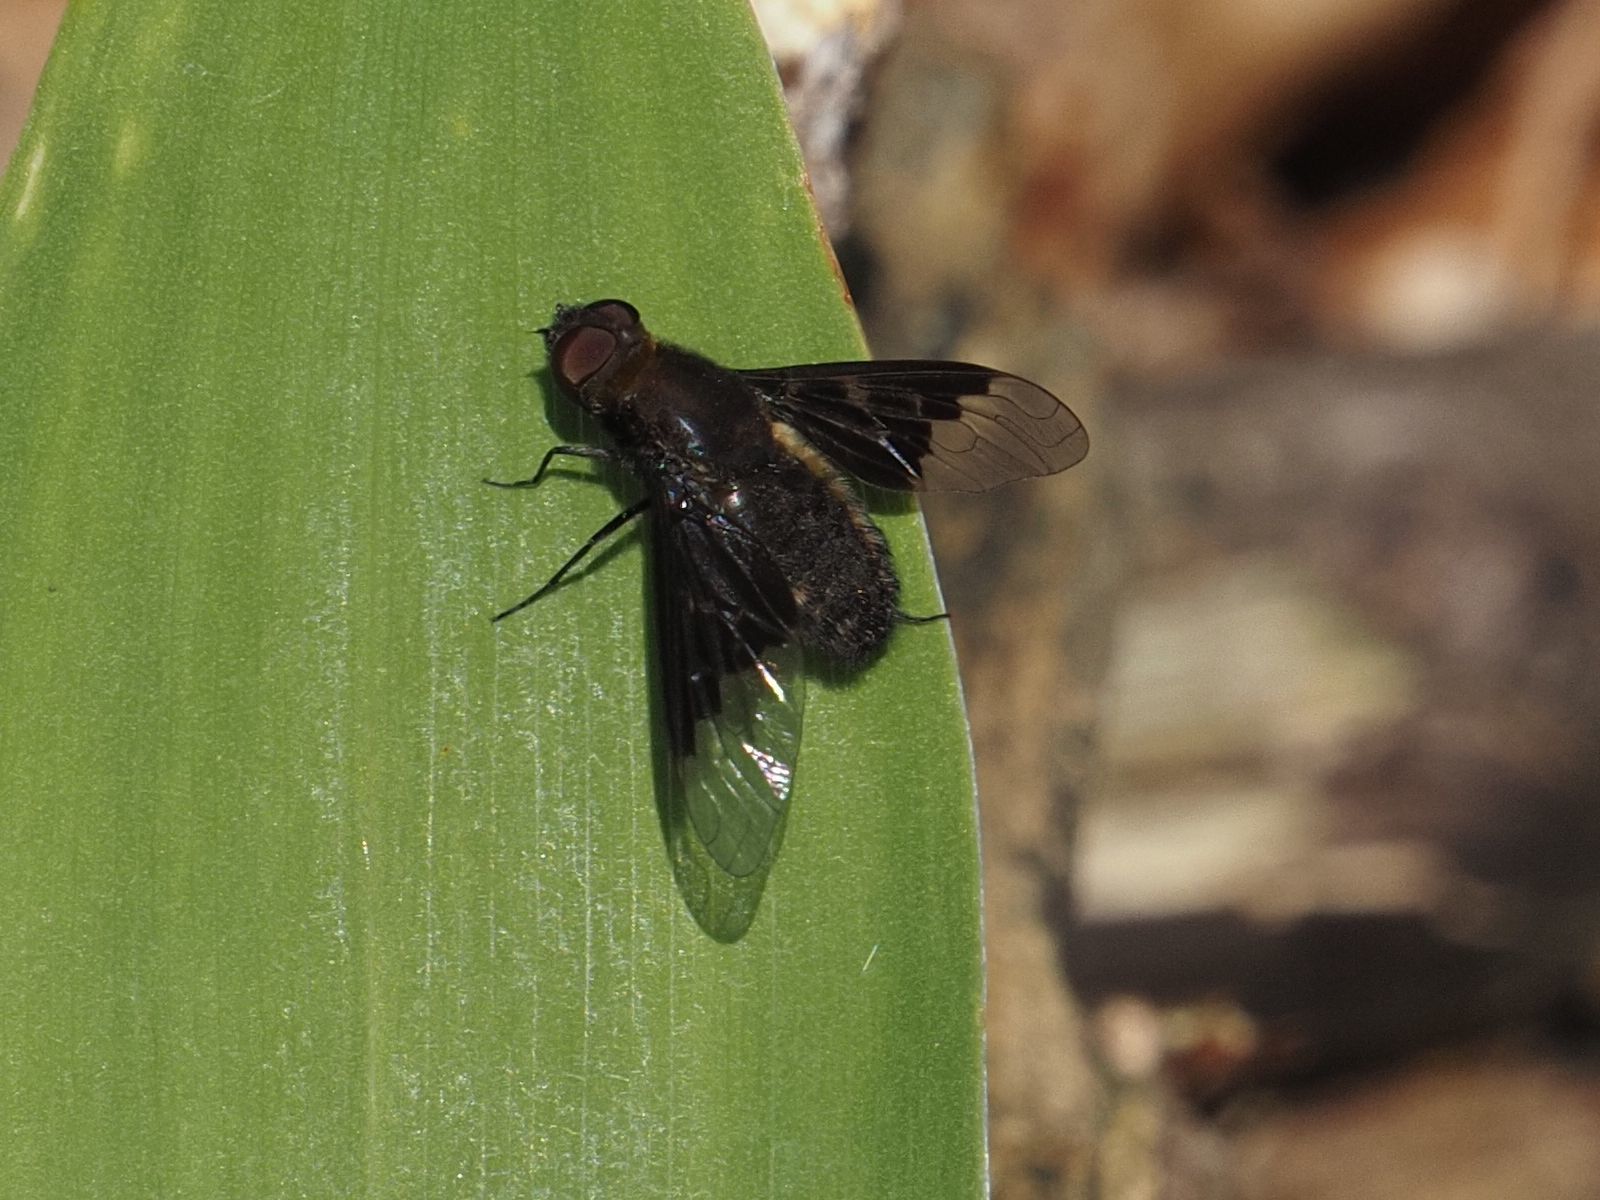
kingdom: Animalia
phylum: Arthropoda
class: Insecta
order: Diptera
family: Bombyliidae
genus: Hemipenthes
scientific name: Hemipenthes morio
